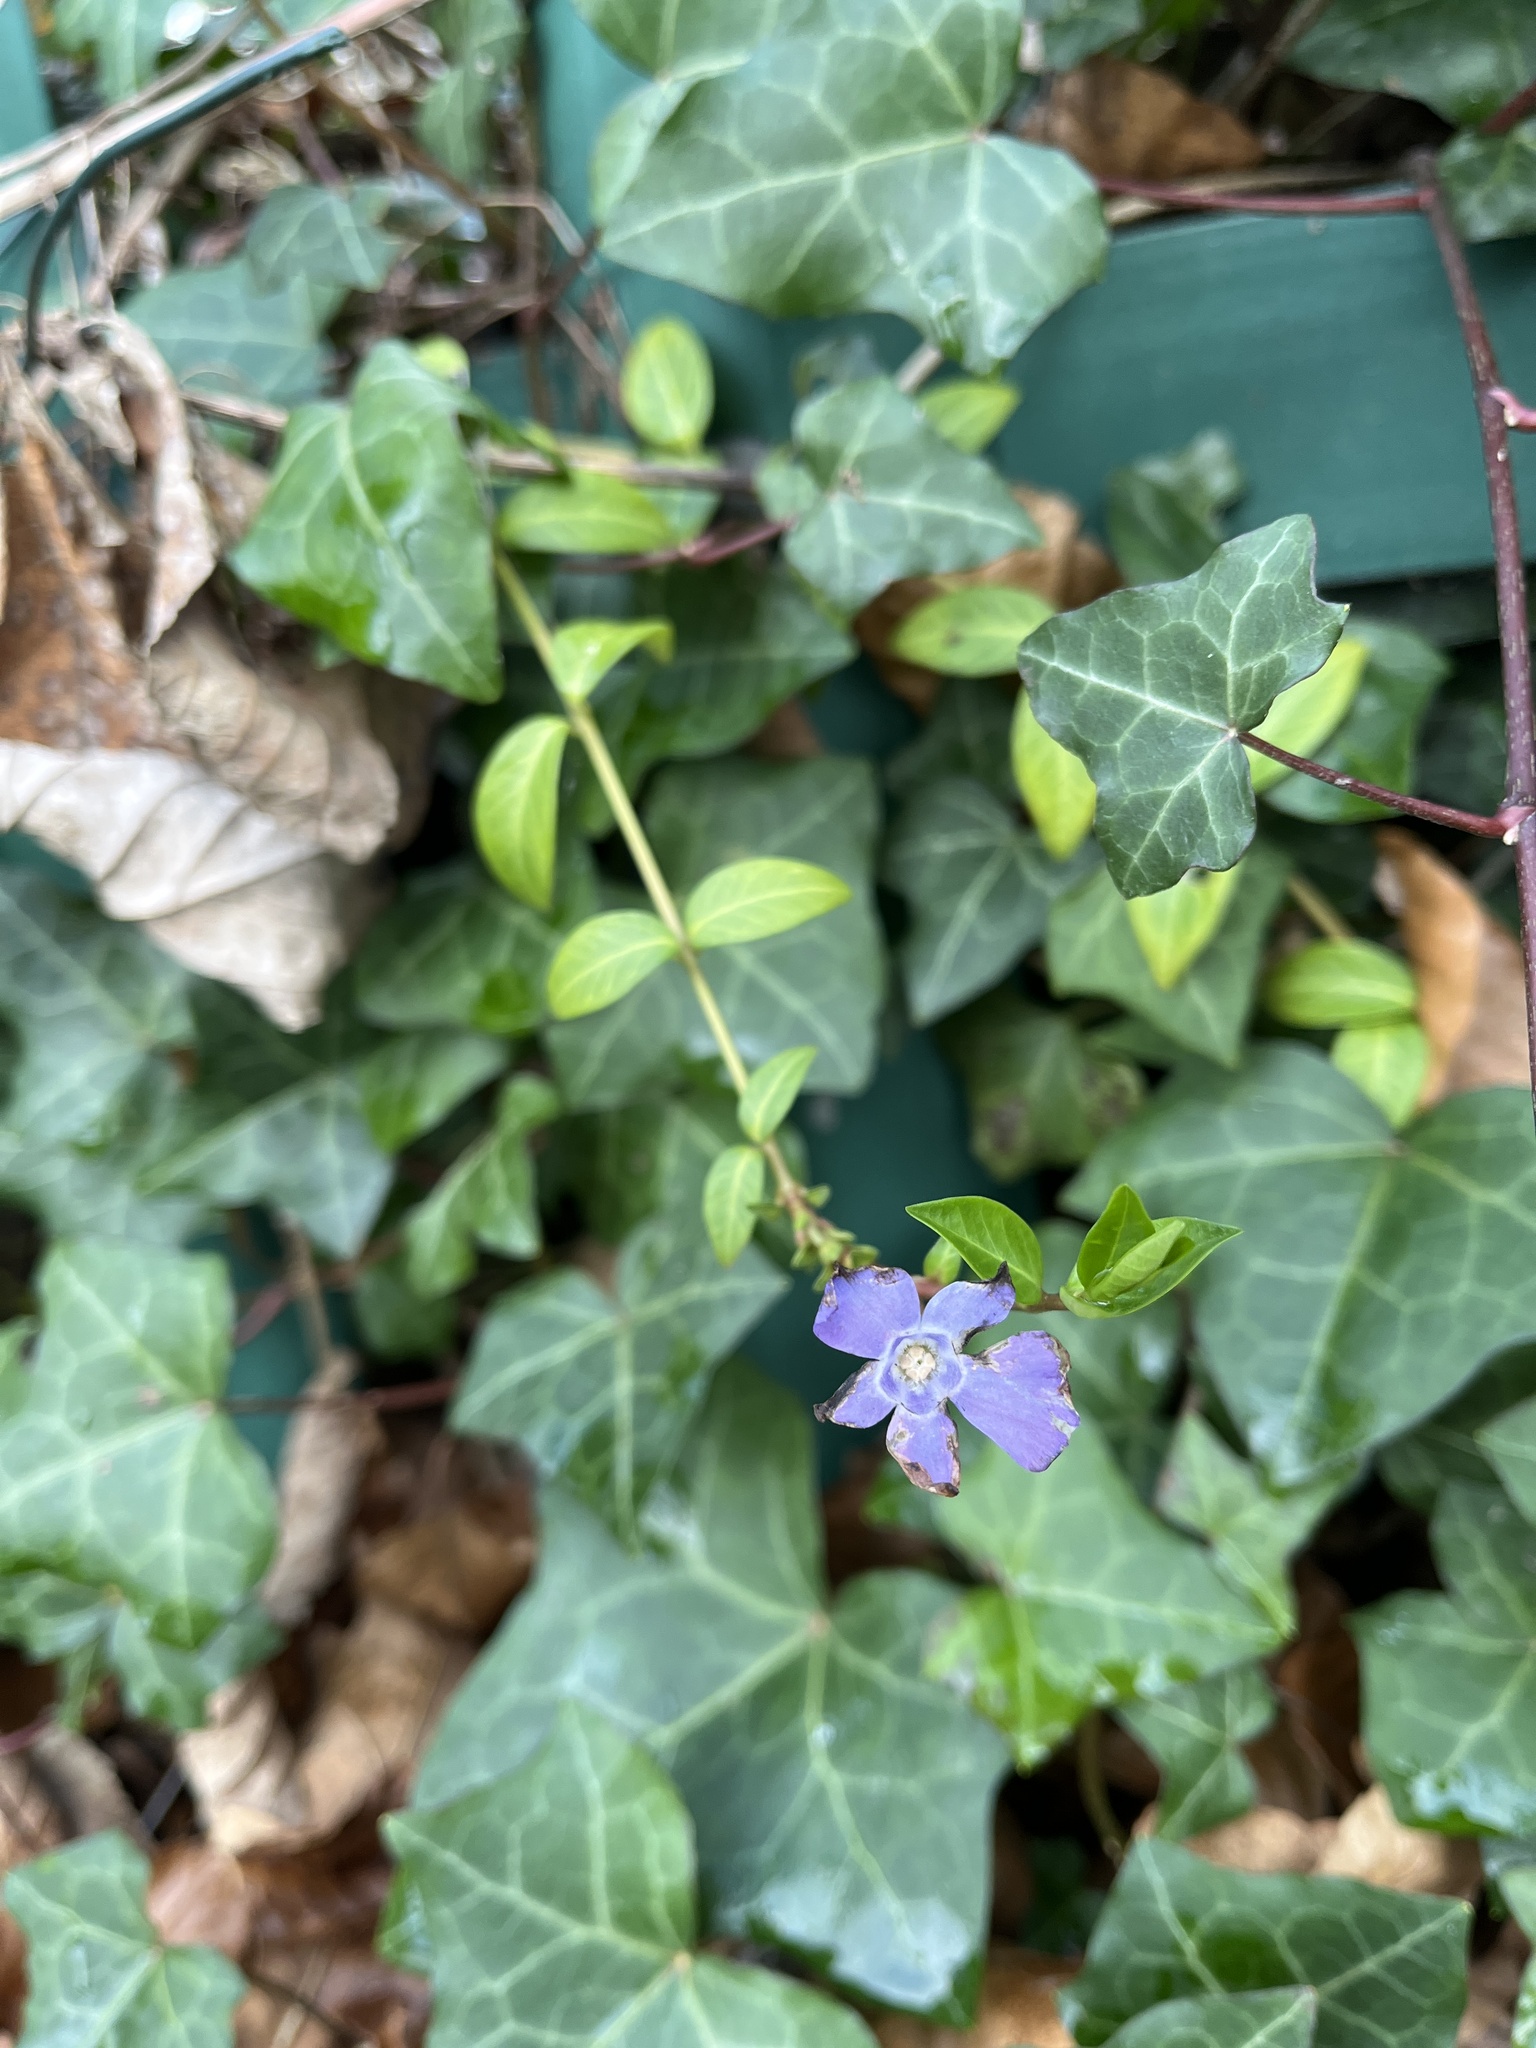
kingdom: Plantae
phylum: Tracheophyta
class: Magnoliopsida
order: Gentianales
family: Apocynaceae
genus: Vinca
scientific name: Vinca minor
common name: Lesser periwinkle
